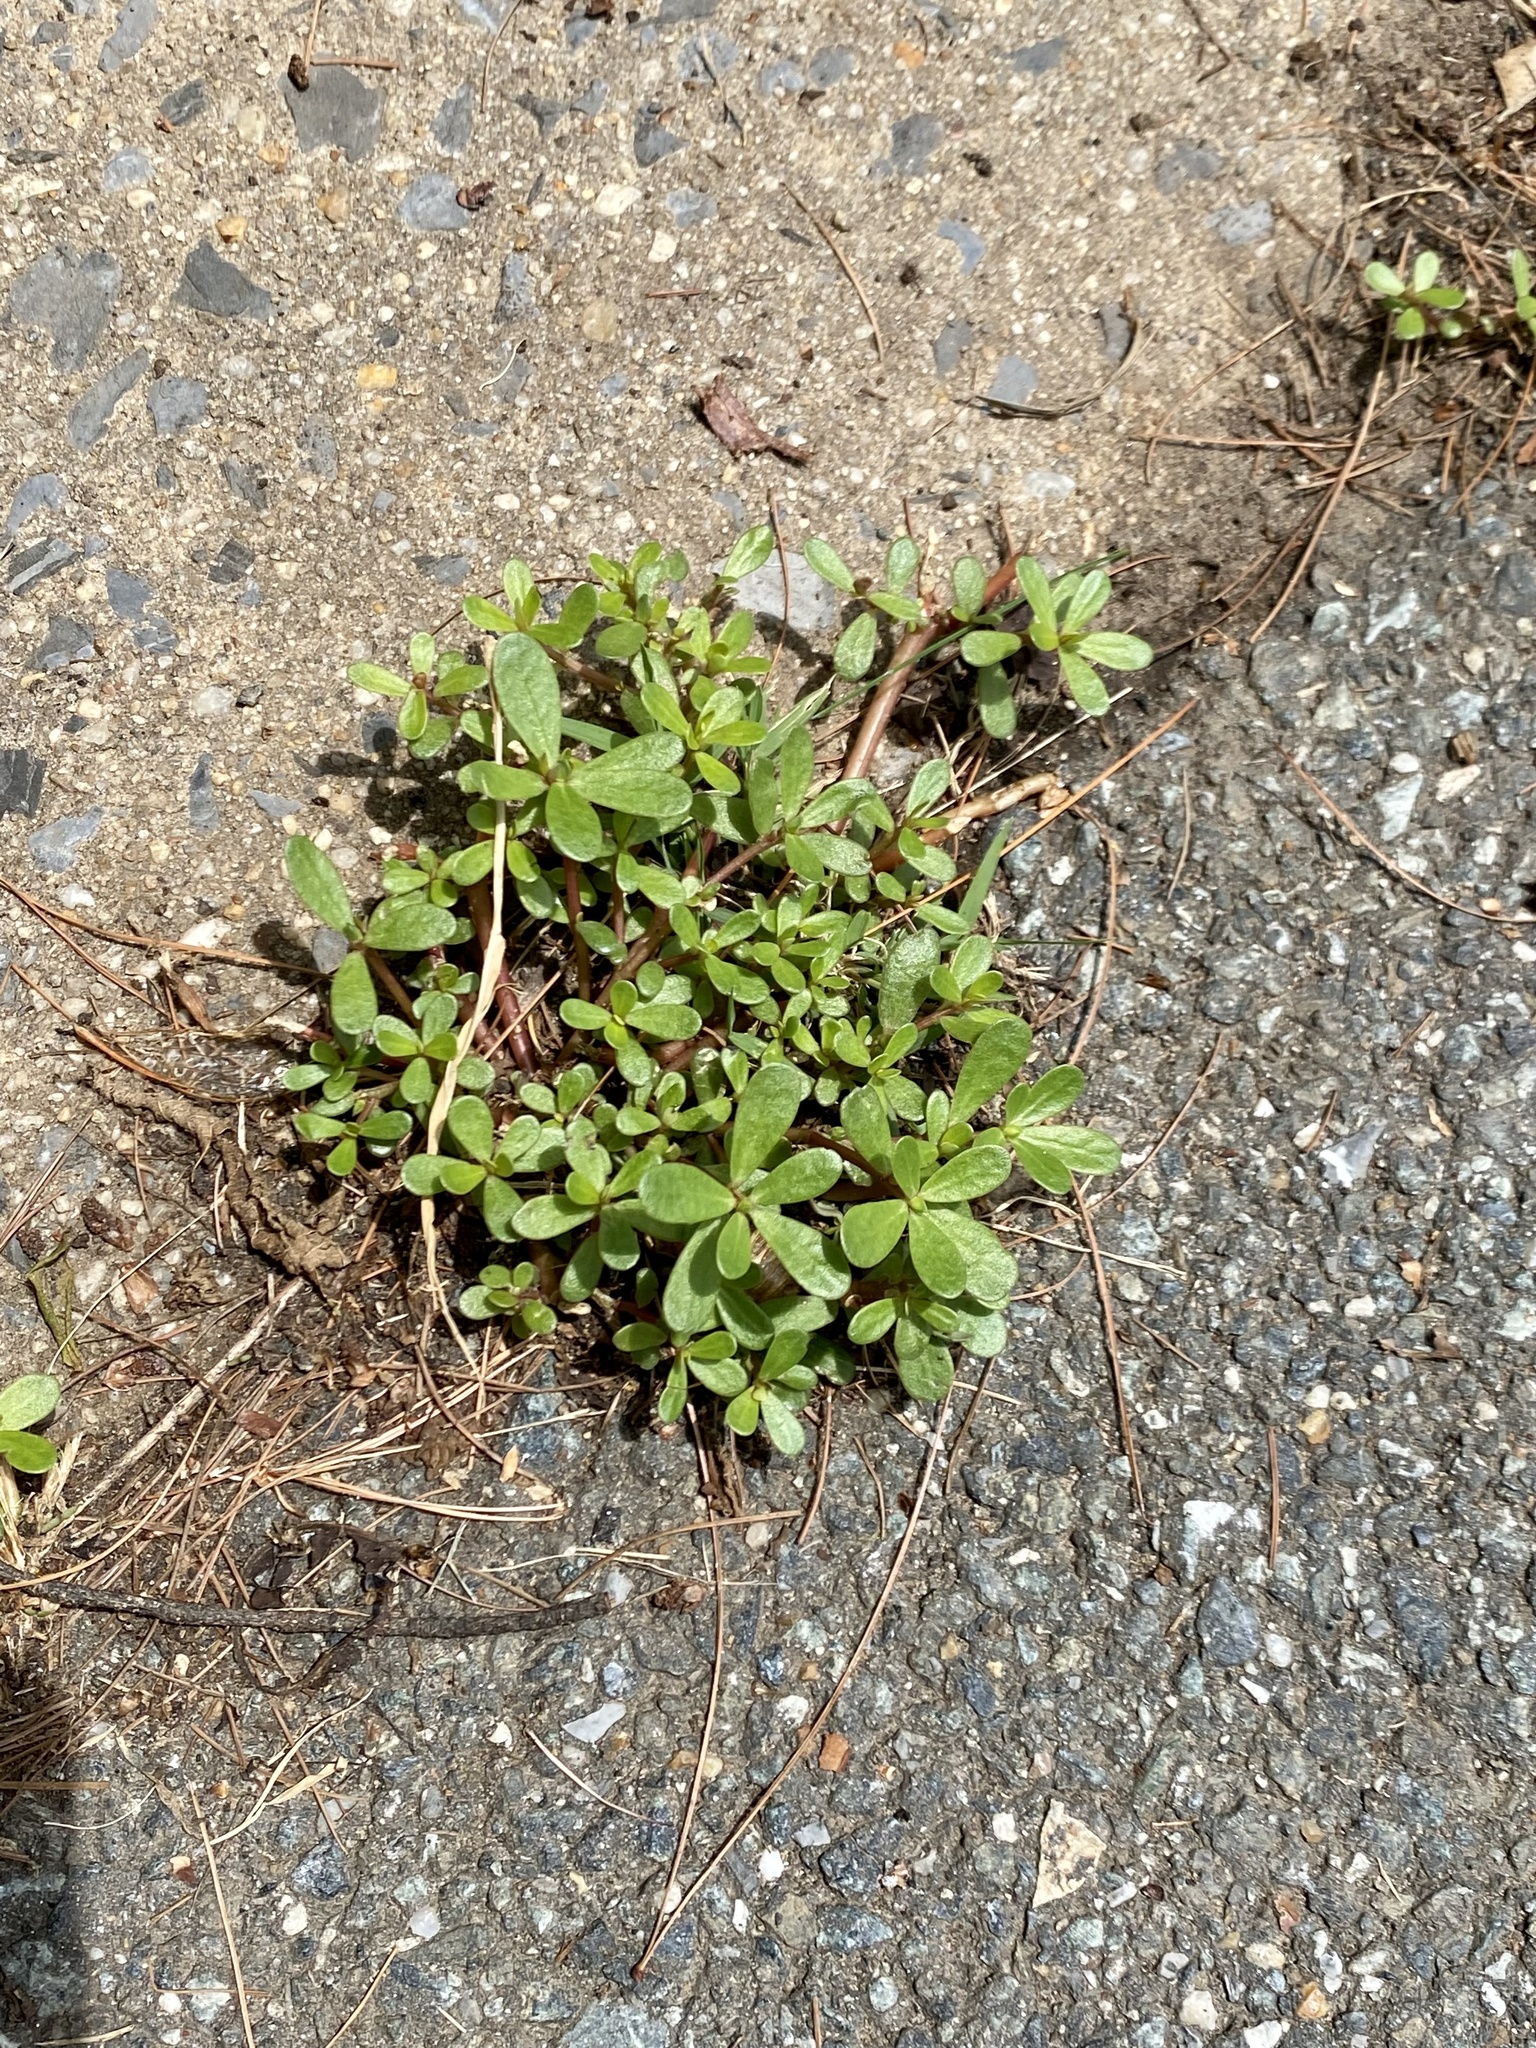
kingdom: Plantae
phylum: Tracheophyta
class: Magnoliopsida
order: Caryophyllales
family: Portulacaceae
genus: Portulaca
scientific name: Portulaca oleracea
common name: Common purslane
